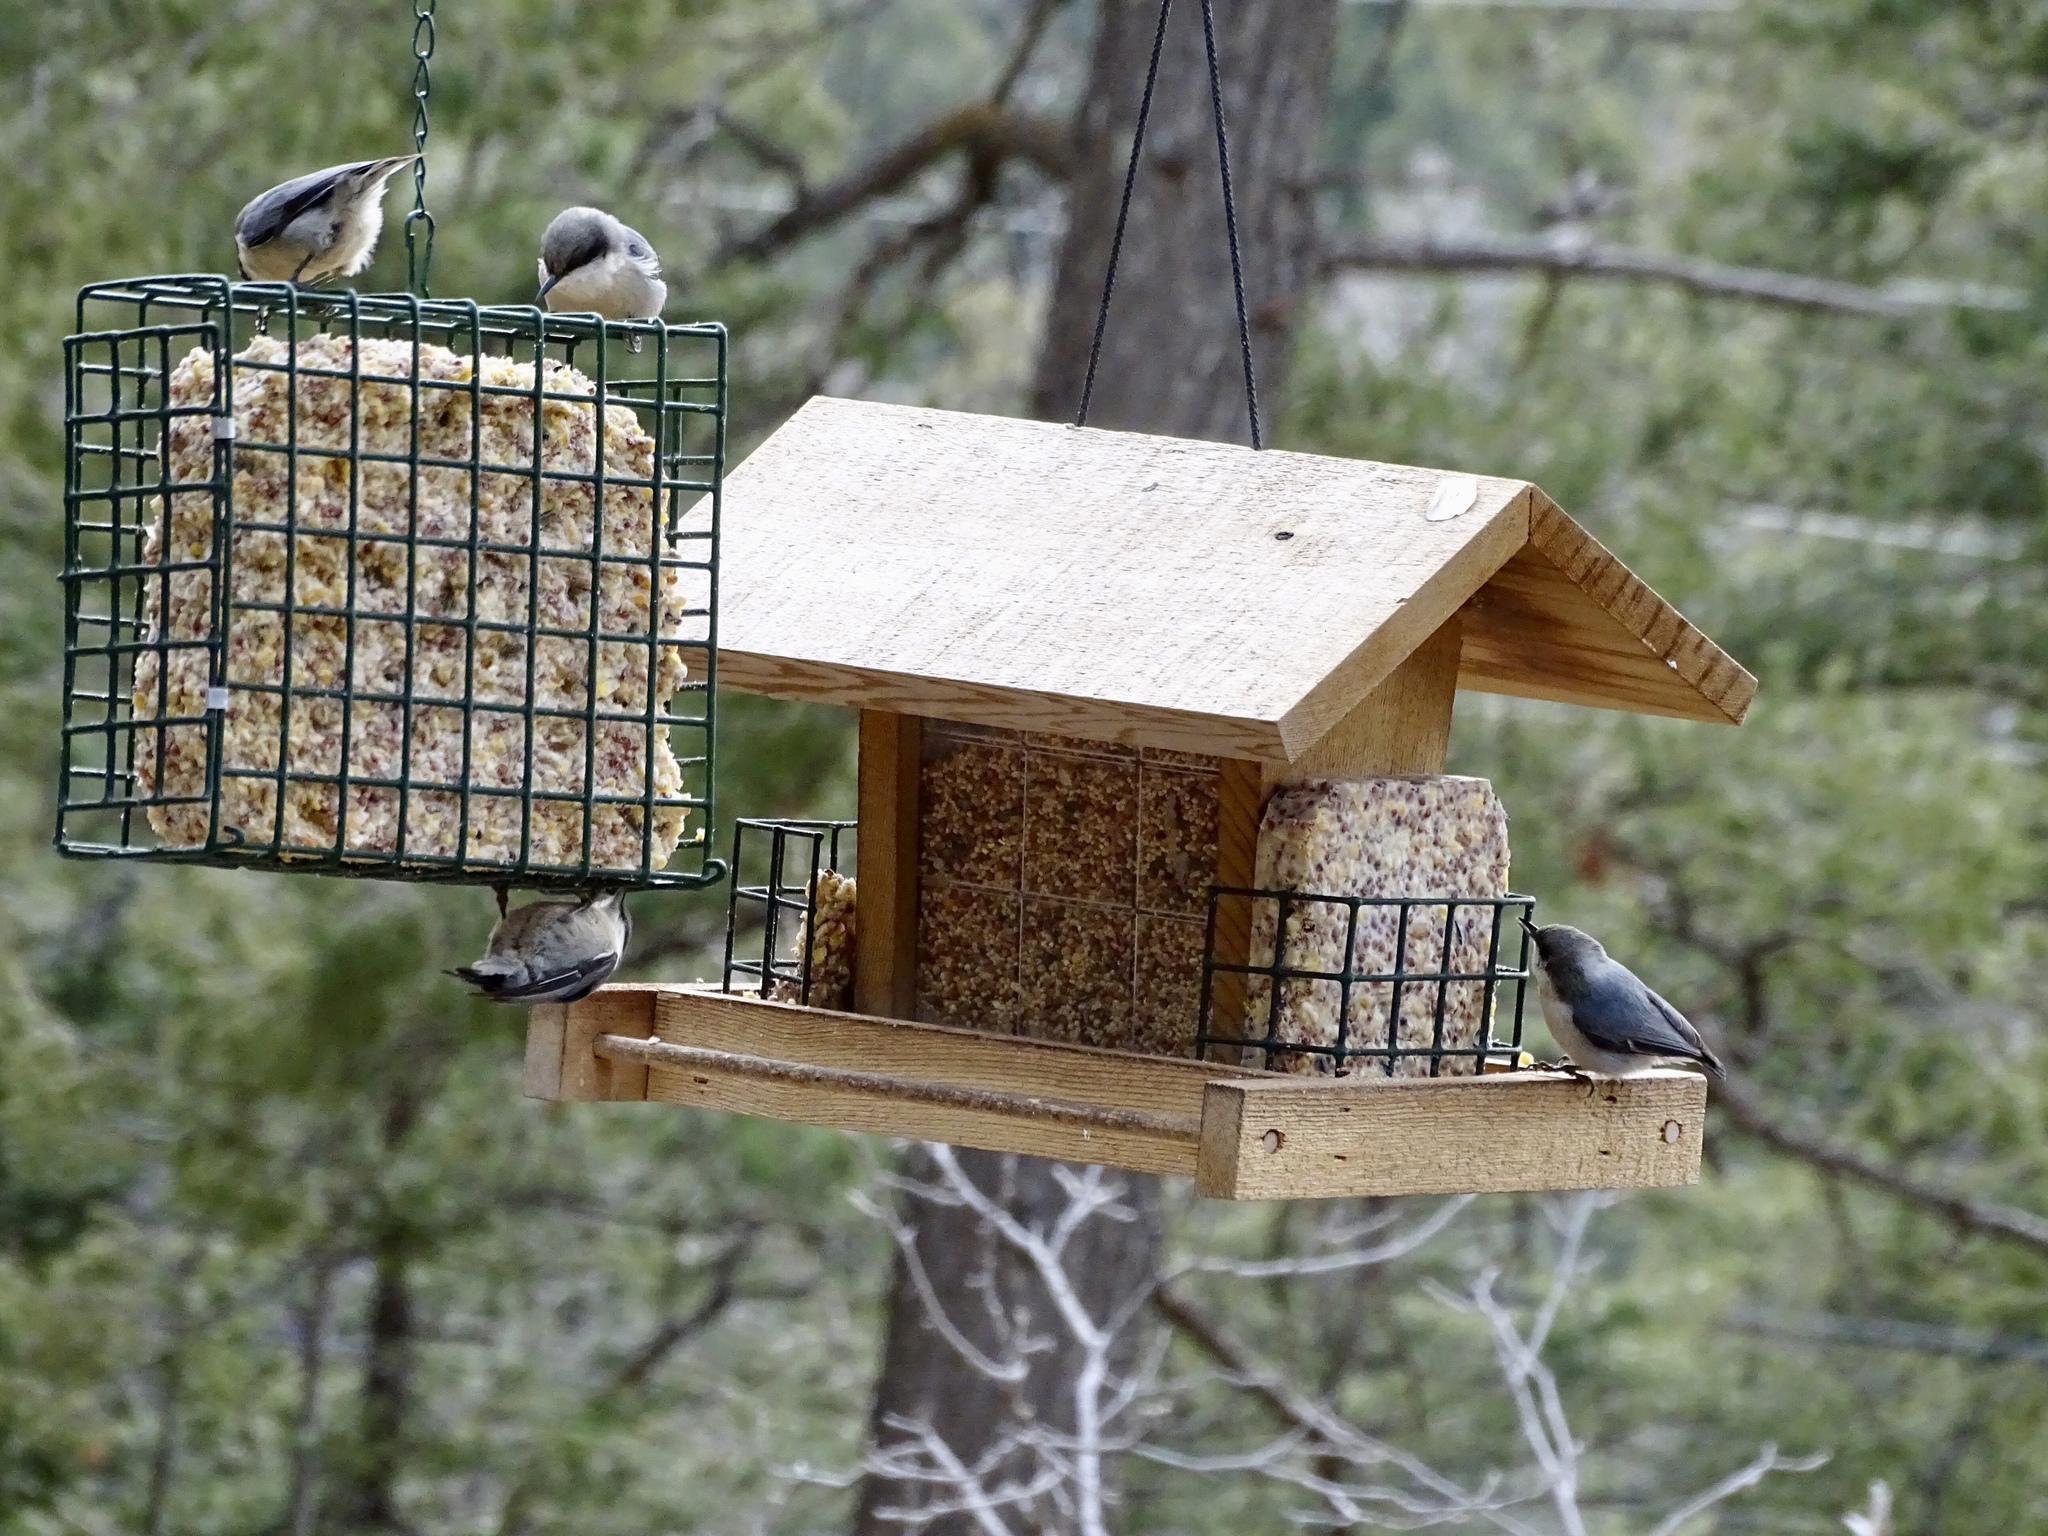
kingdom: Animalia
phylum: Chordata
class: Aves
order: Passeriformes
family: Sittidae
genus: Sitta
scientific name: Sitta pygmaea
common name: Pygmy nuthatch
